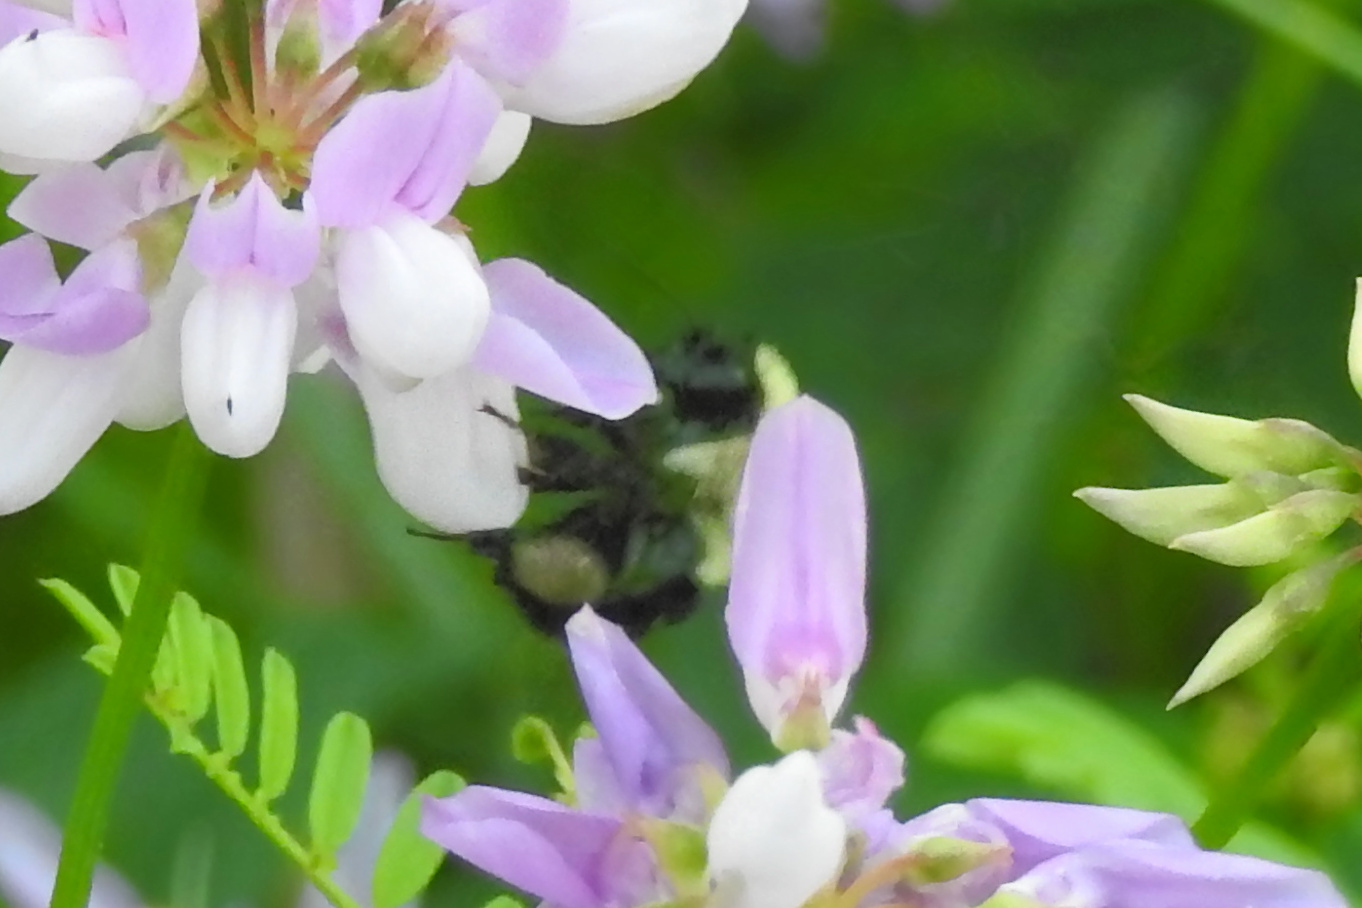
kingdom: Animalia
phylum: Arthropoda
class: Insecta
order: Hymenoptera
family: Apidae
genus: Bombus
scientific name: Bombus
